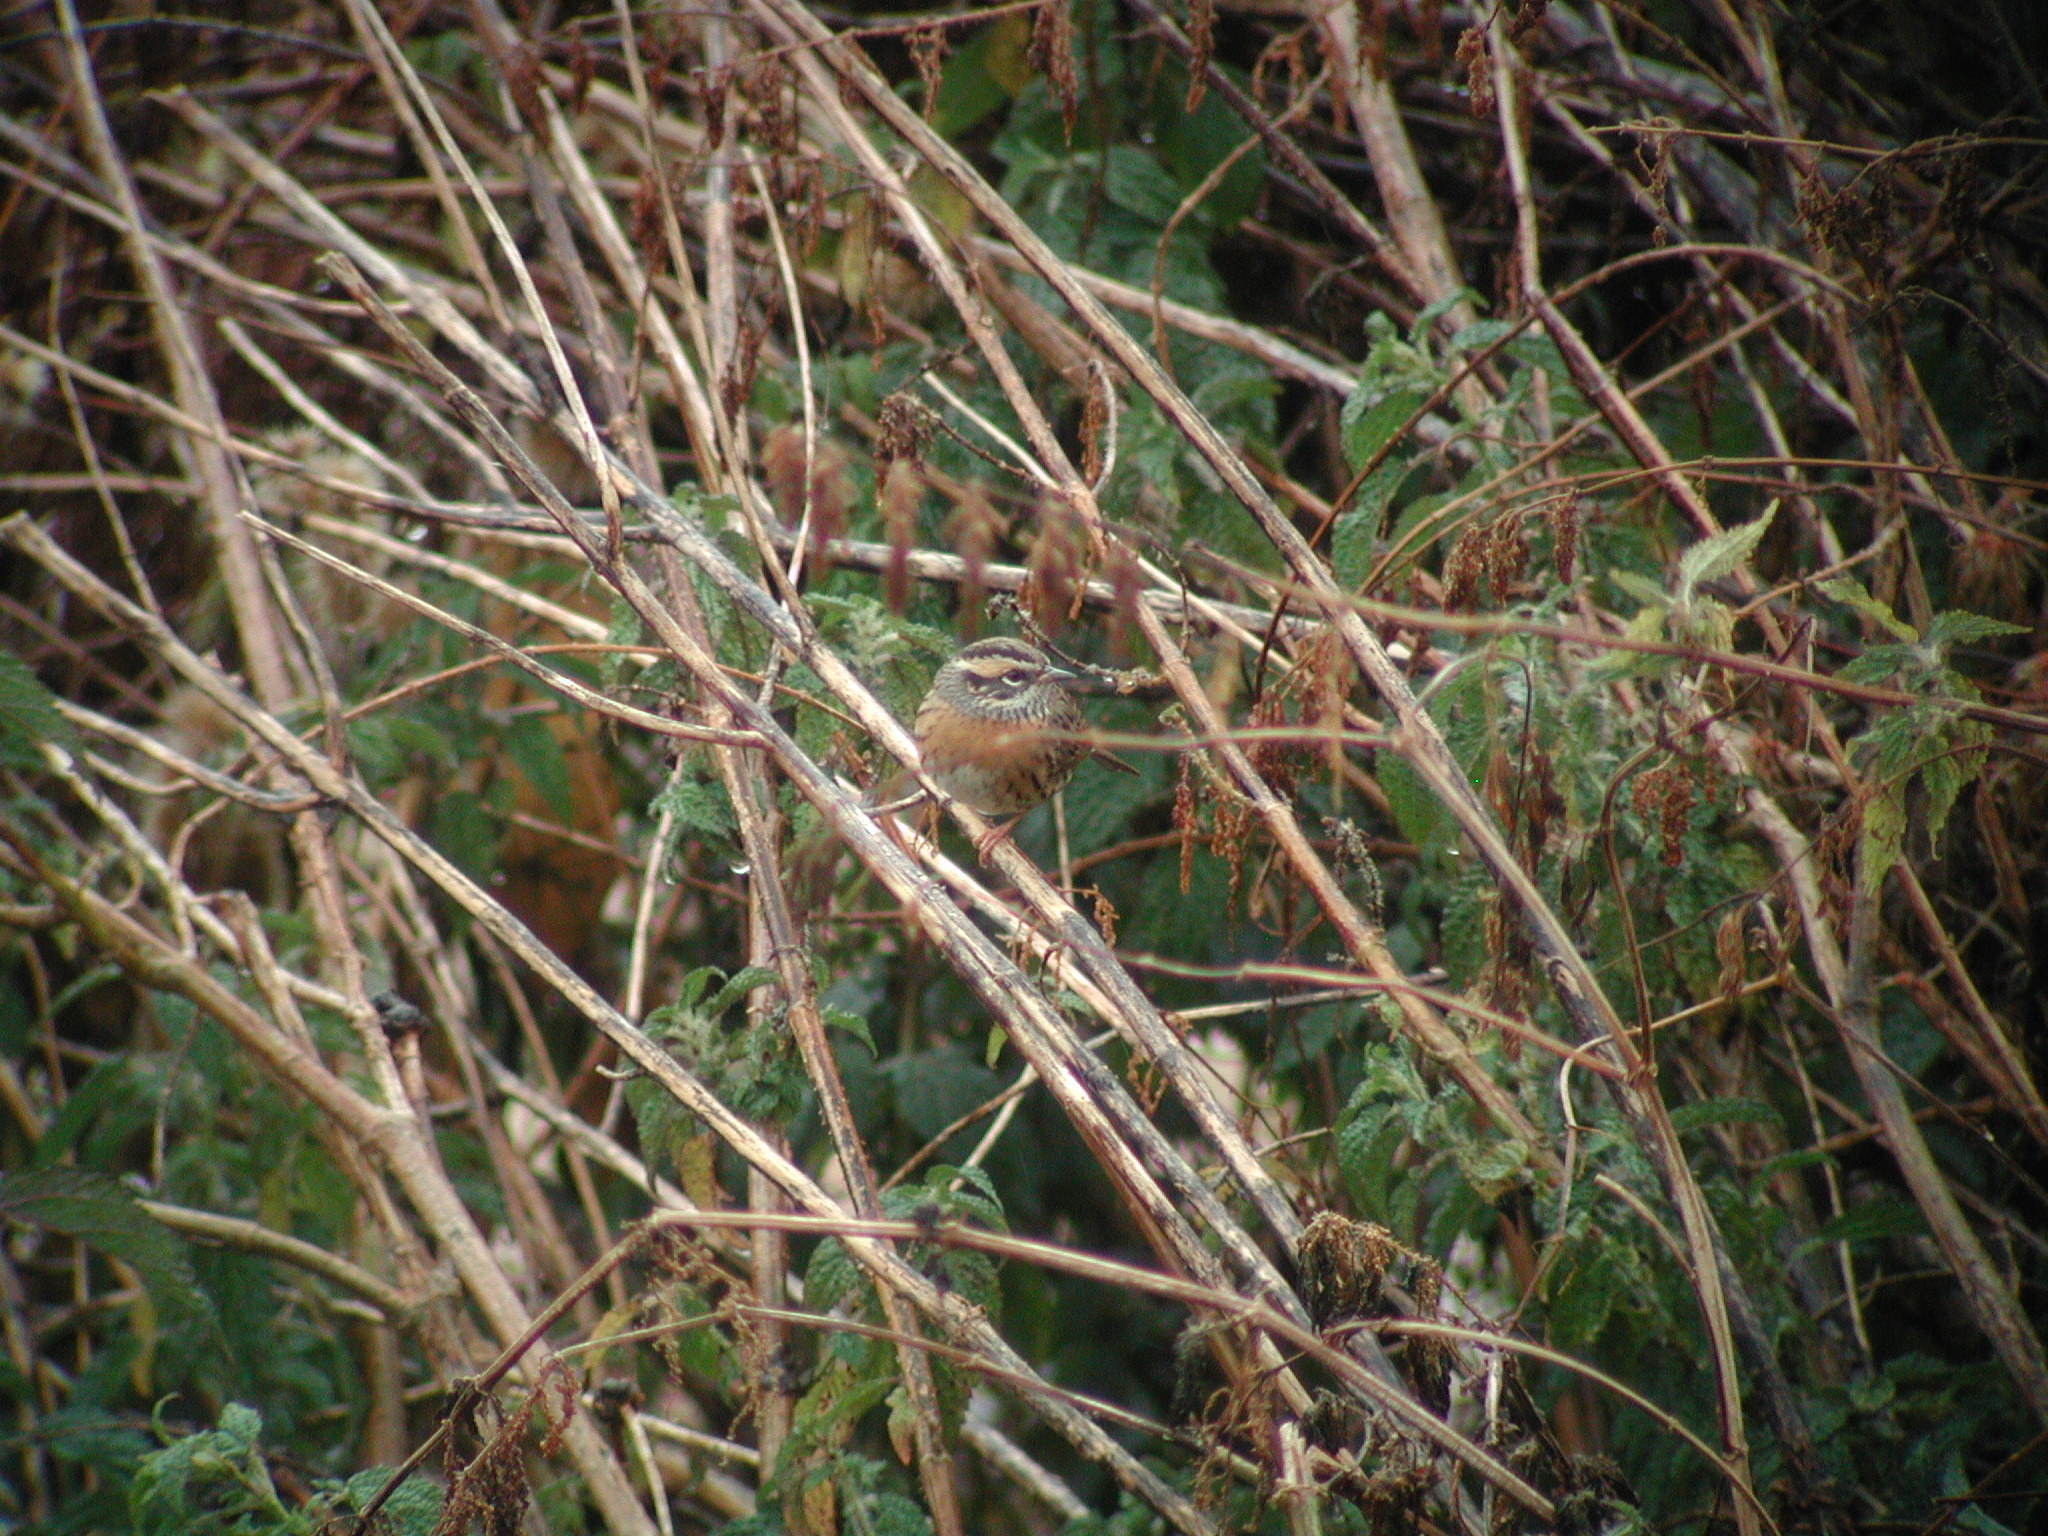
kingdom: Animalia
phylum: Chordata
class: Aves
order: Passeriformes
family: Prunellidae
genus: Prunella
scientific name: Prunella strophiata
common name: Rufous-breasted accentor
